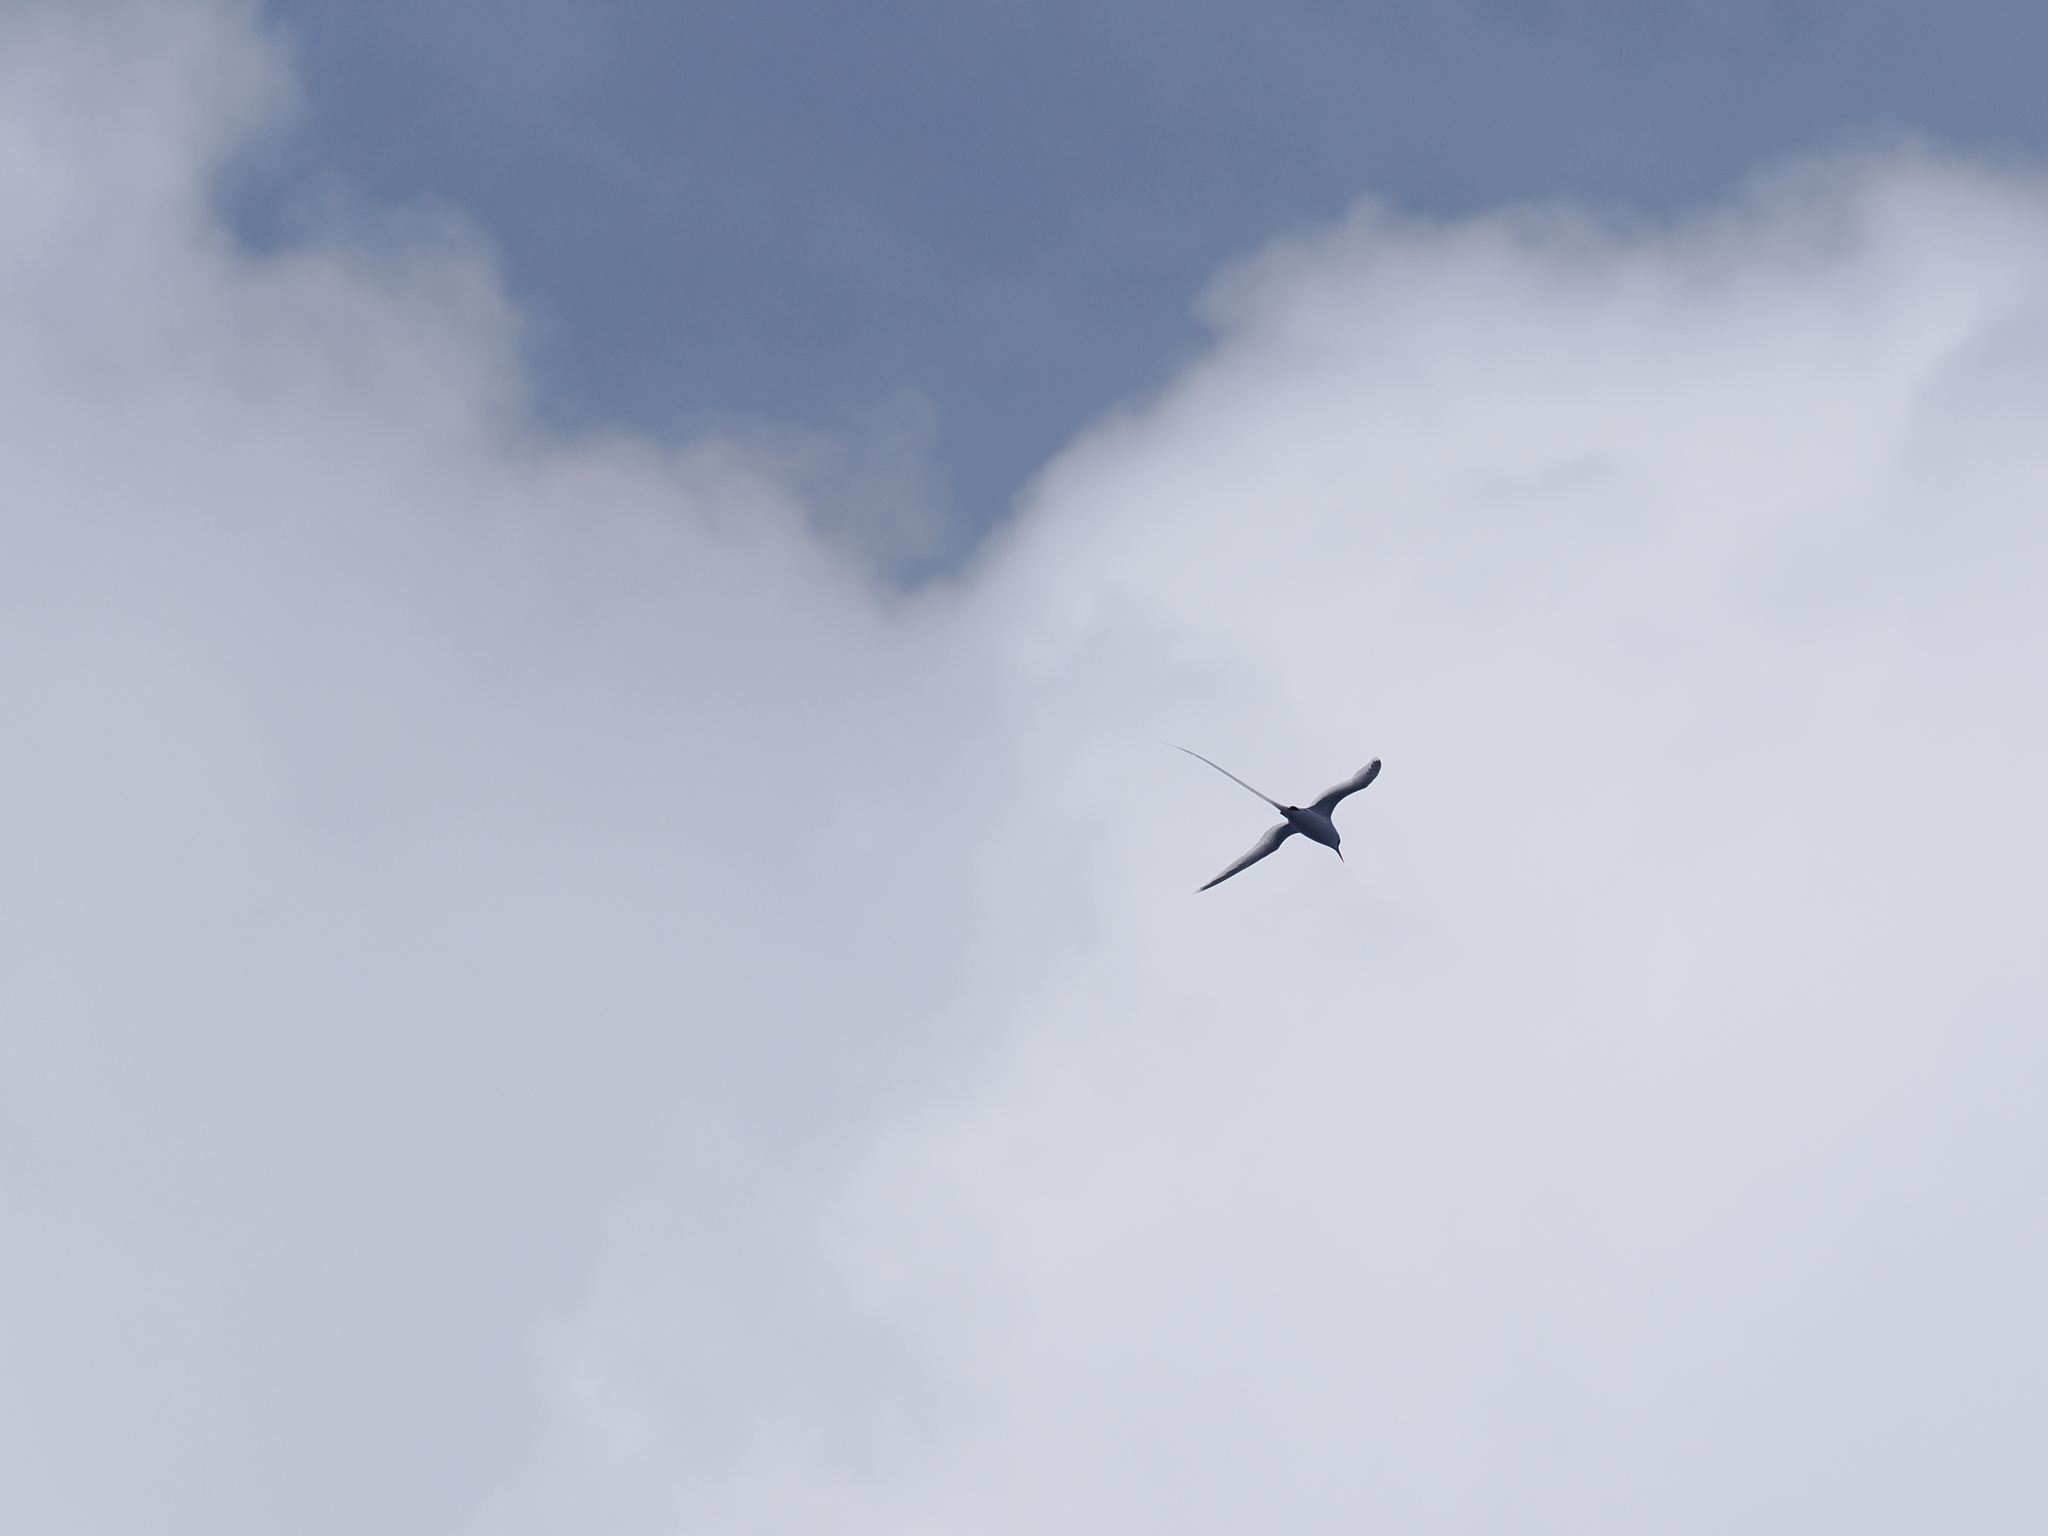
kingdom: Animalia
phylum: Chordata
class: Aves
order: Phaethontiformes
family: Phaethontidae
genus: Phaethon
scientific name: Phaethon lepturus
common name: White-tailed tropicbird
